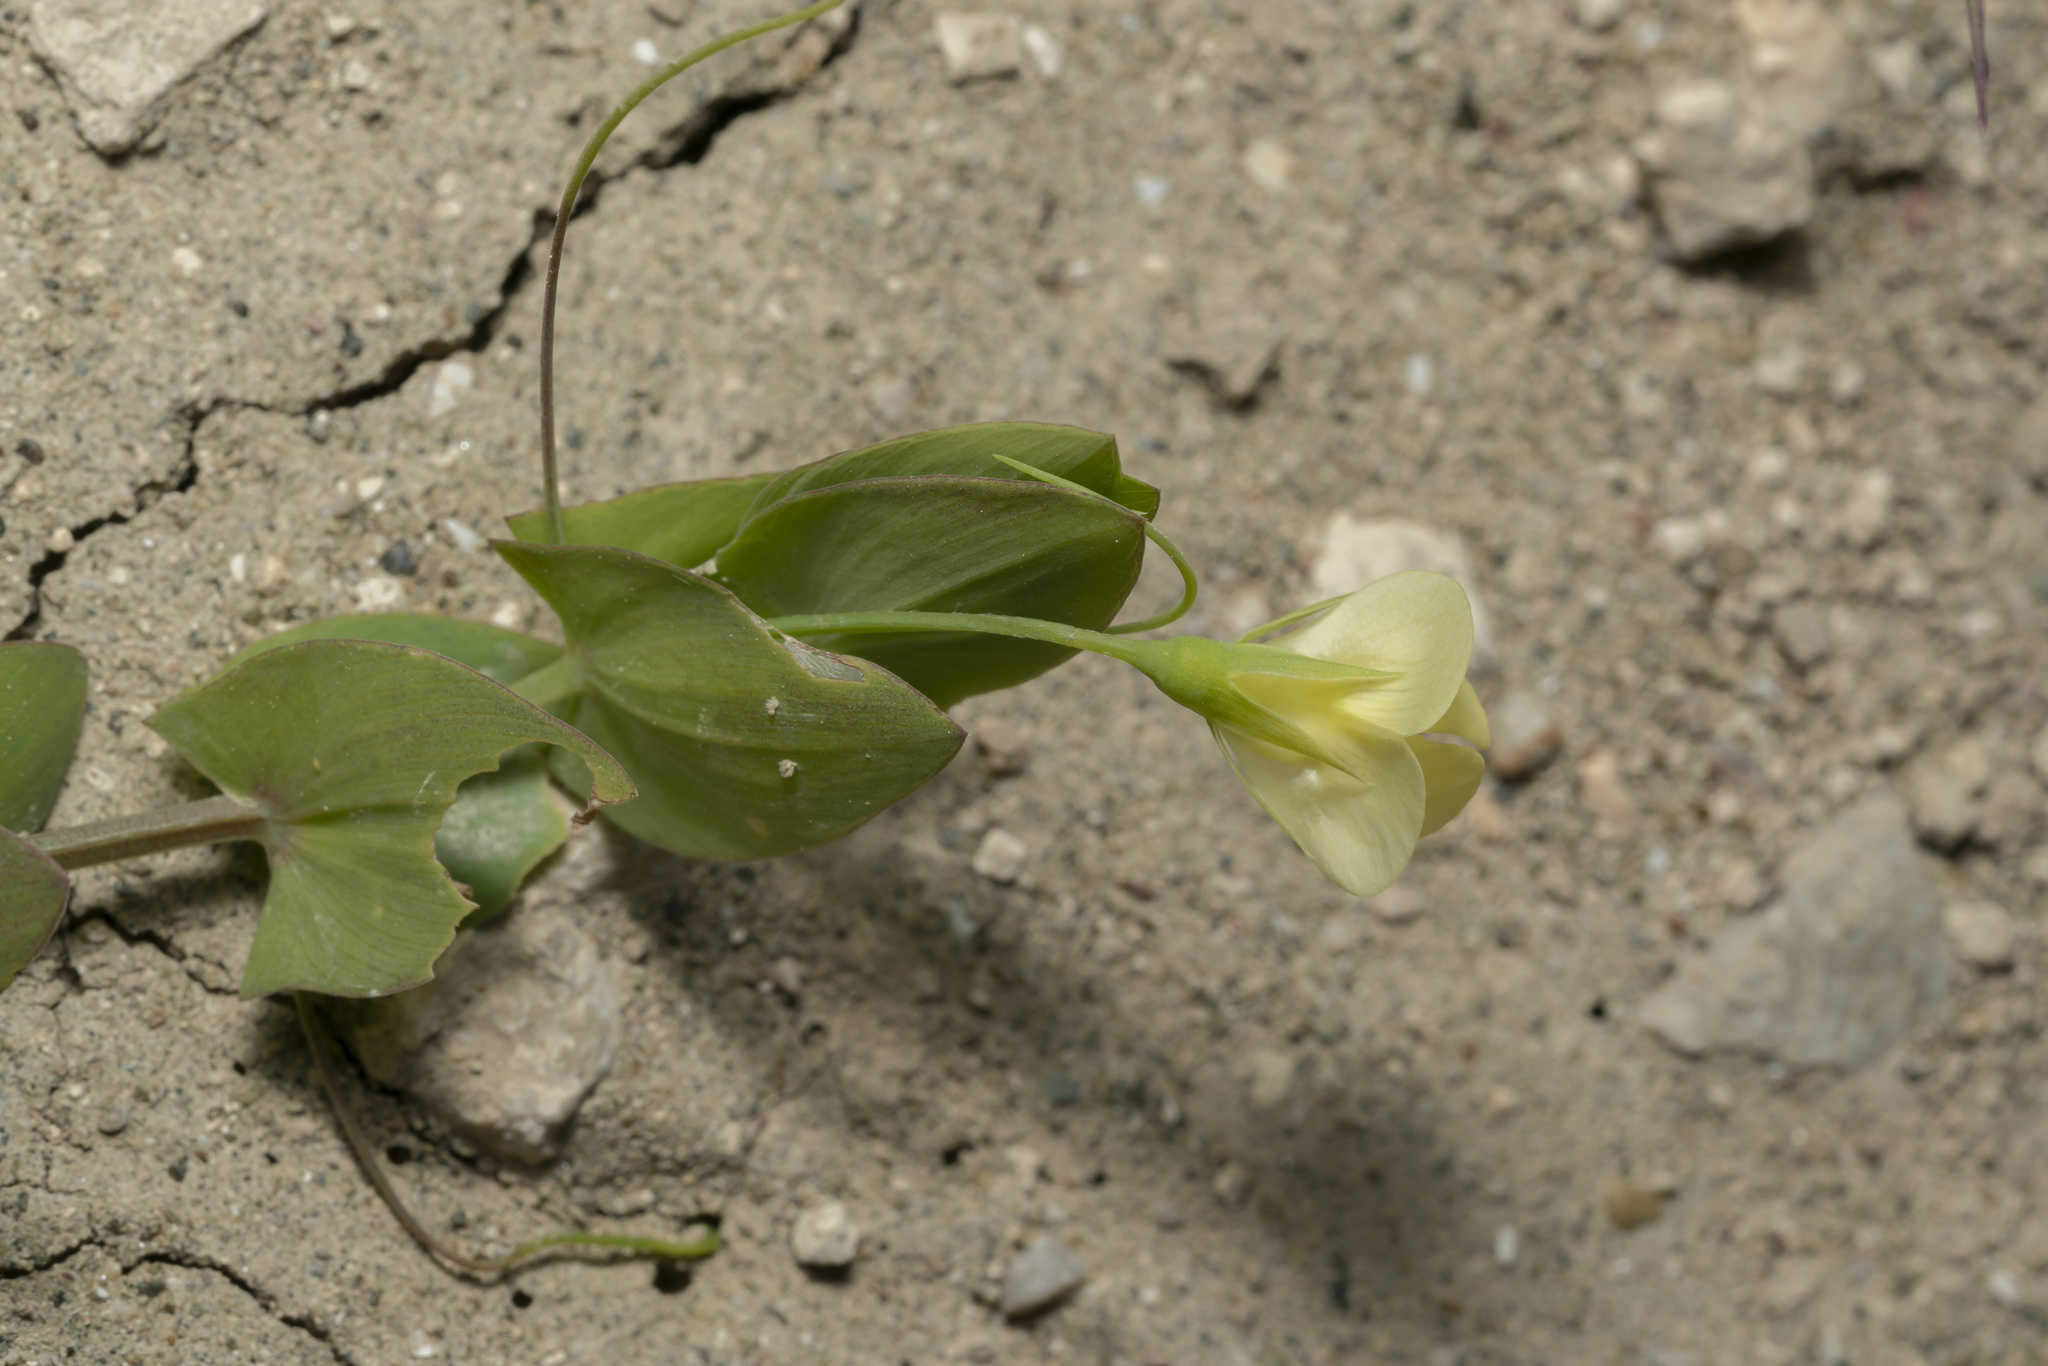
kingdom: Plantae
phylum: Tracheophyta
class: Magnoliopsida
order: Fabales
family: Fabaceae
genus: Lathyrus
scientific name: Lathyrus aphaca
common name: Yellow vetchling
